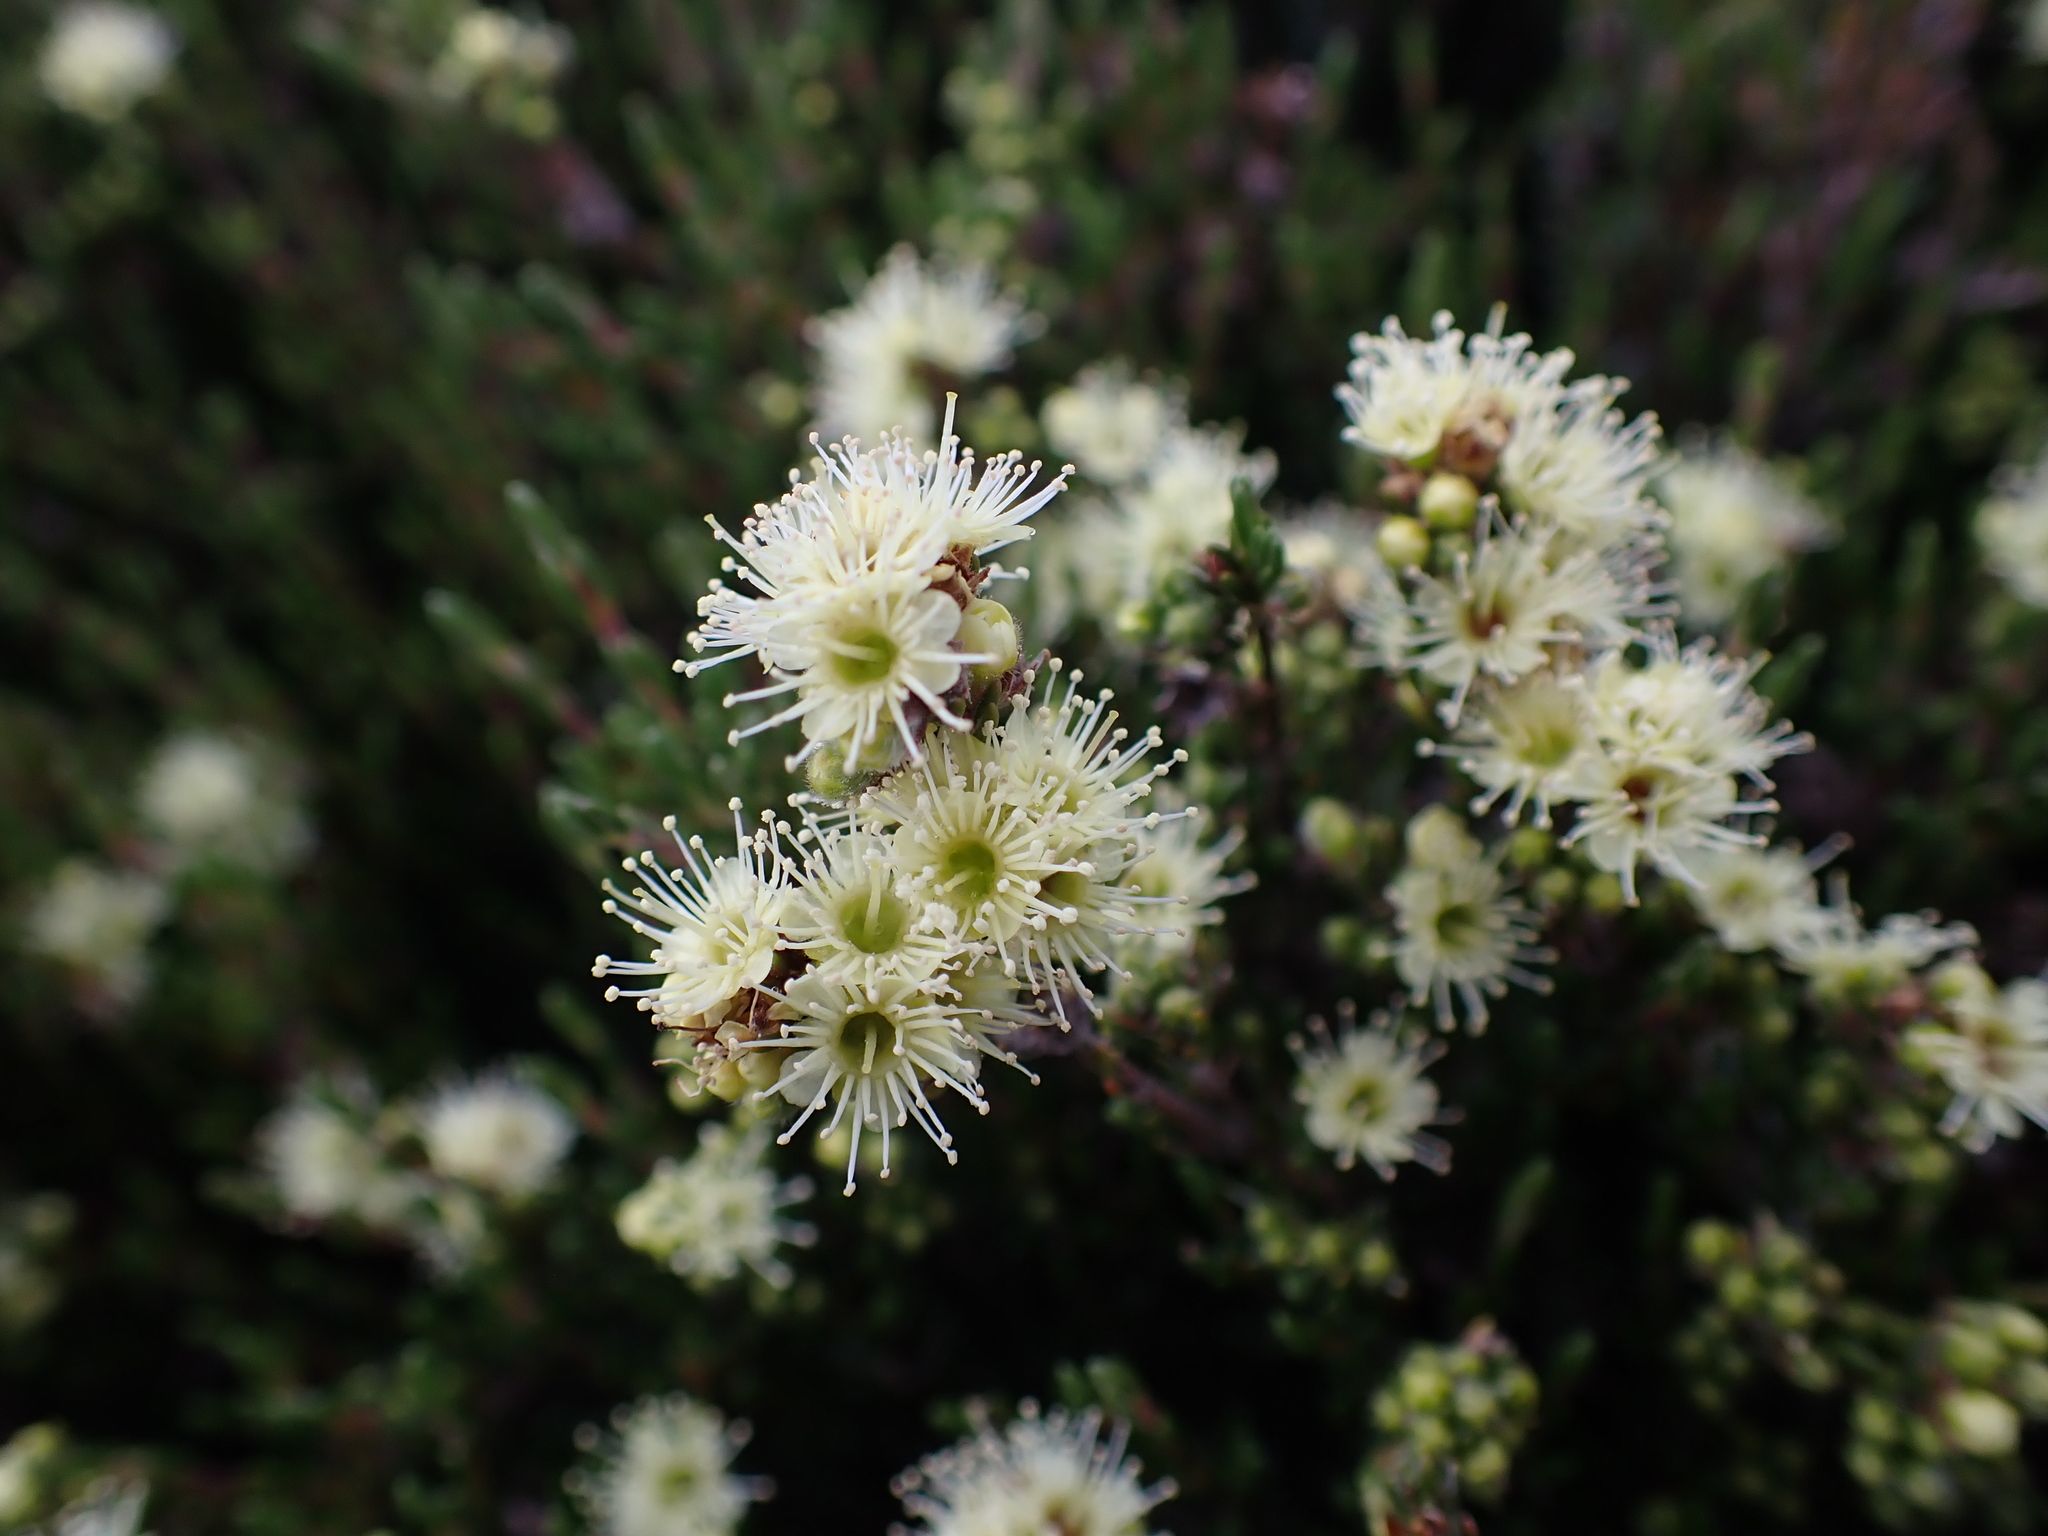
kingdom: Plantae
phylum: Tracheophyta
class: Magnoliopsida
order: Myrtales
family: Myrtaceae
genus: Kunzea
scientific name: Kunzea muelleri
